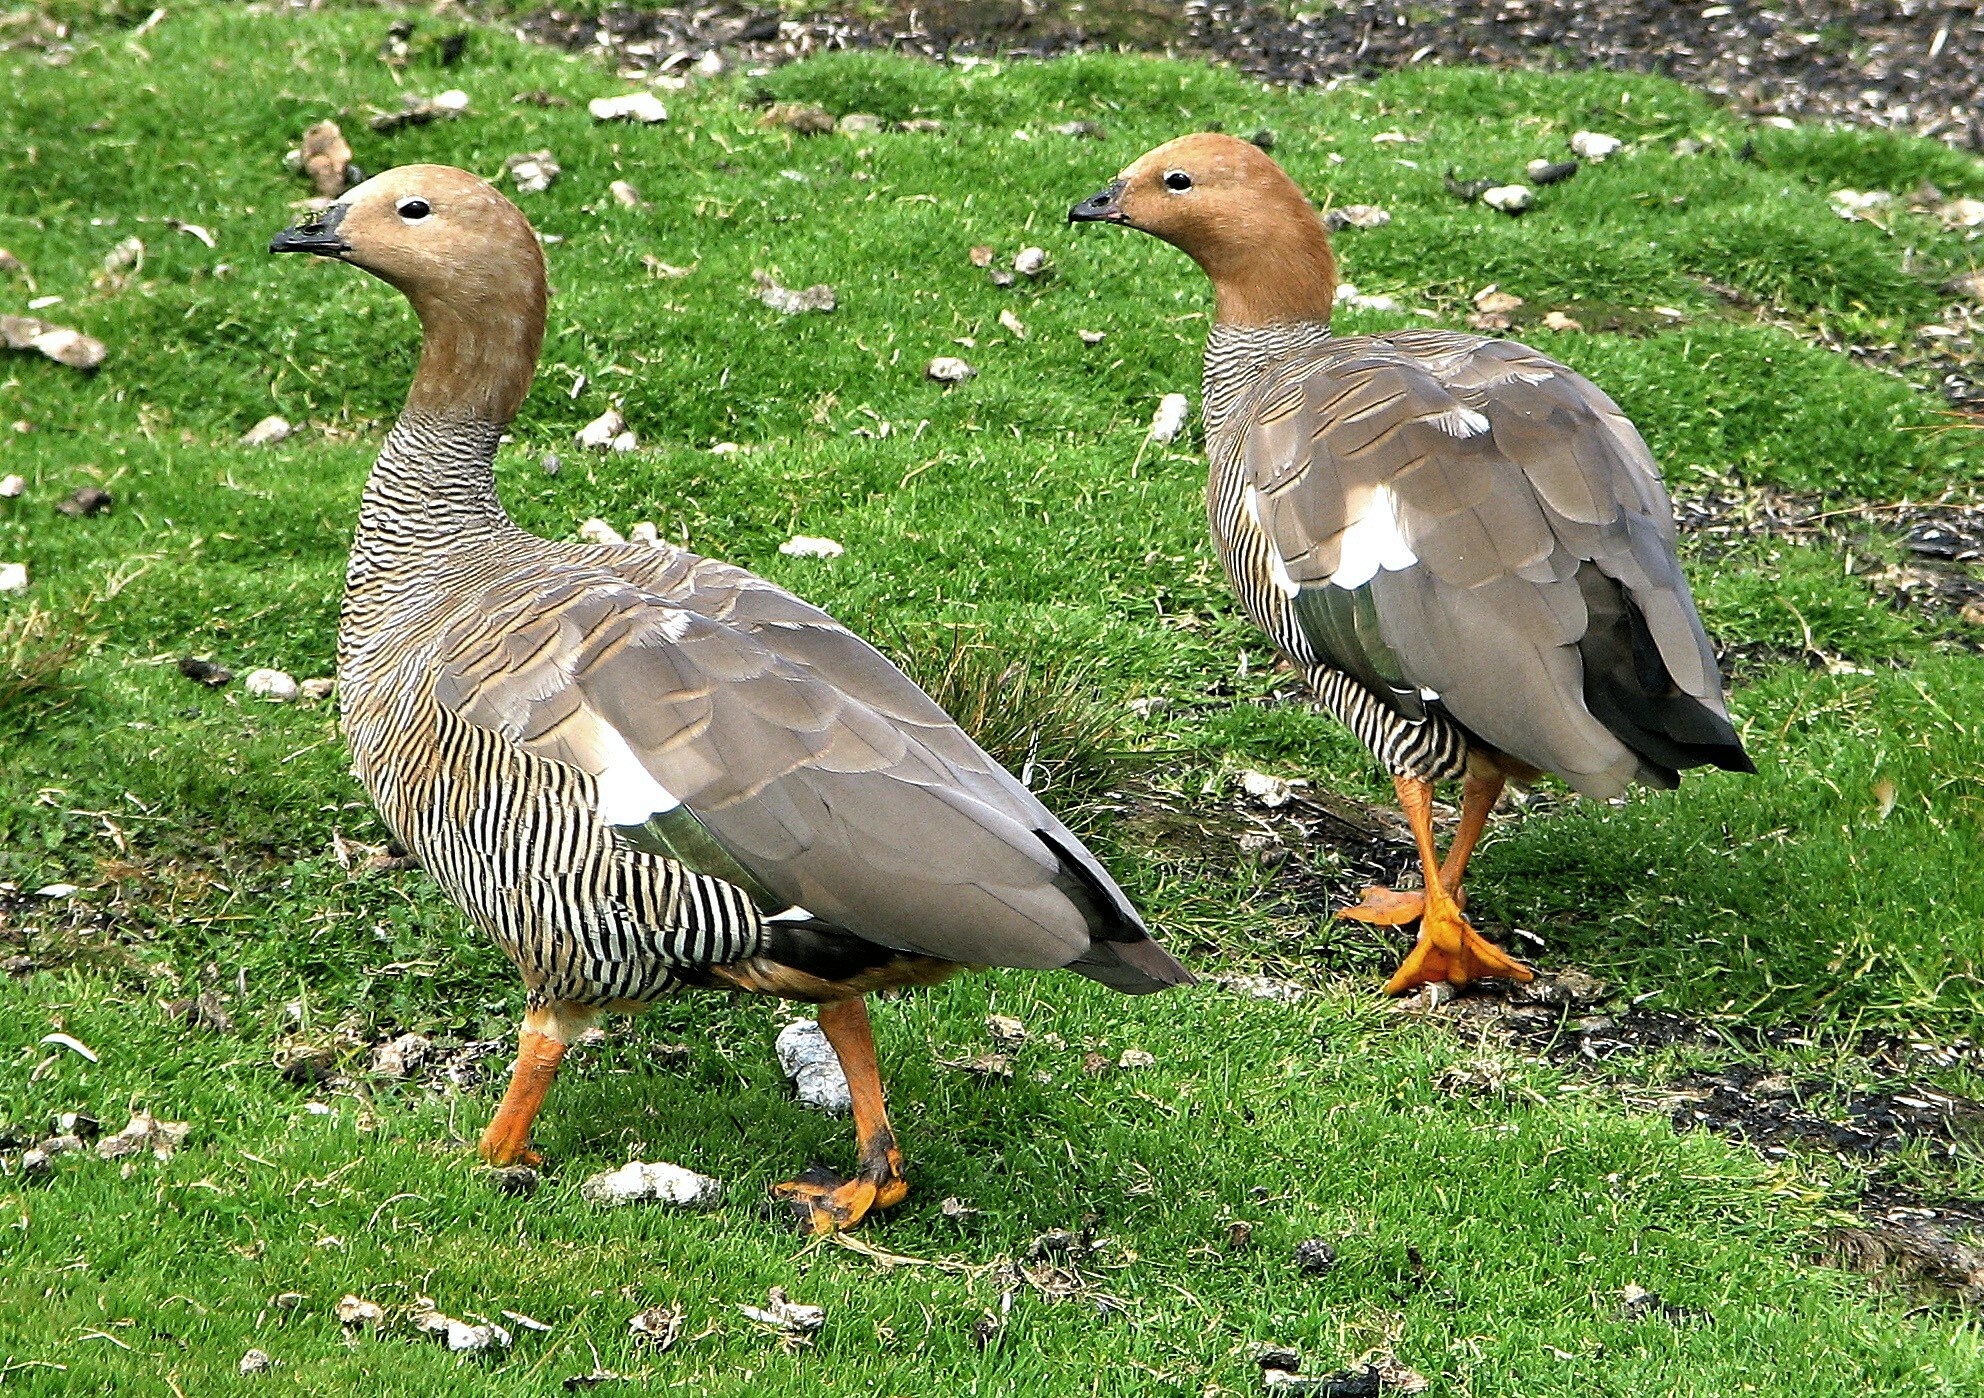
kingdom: Animalia
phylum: Chordata
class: Aves
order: Anseriformes
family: Anatidae
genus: Chloephaga
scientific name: Chloephaga rubidiceps
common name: Ruddy-headed goose
